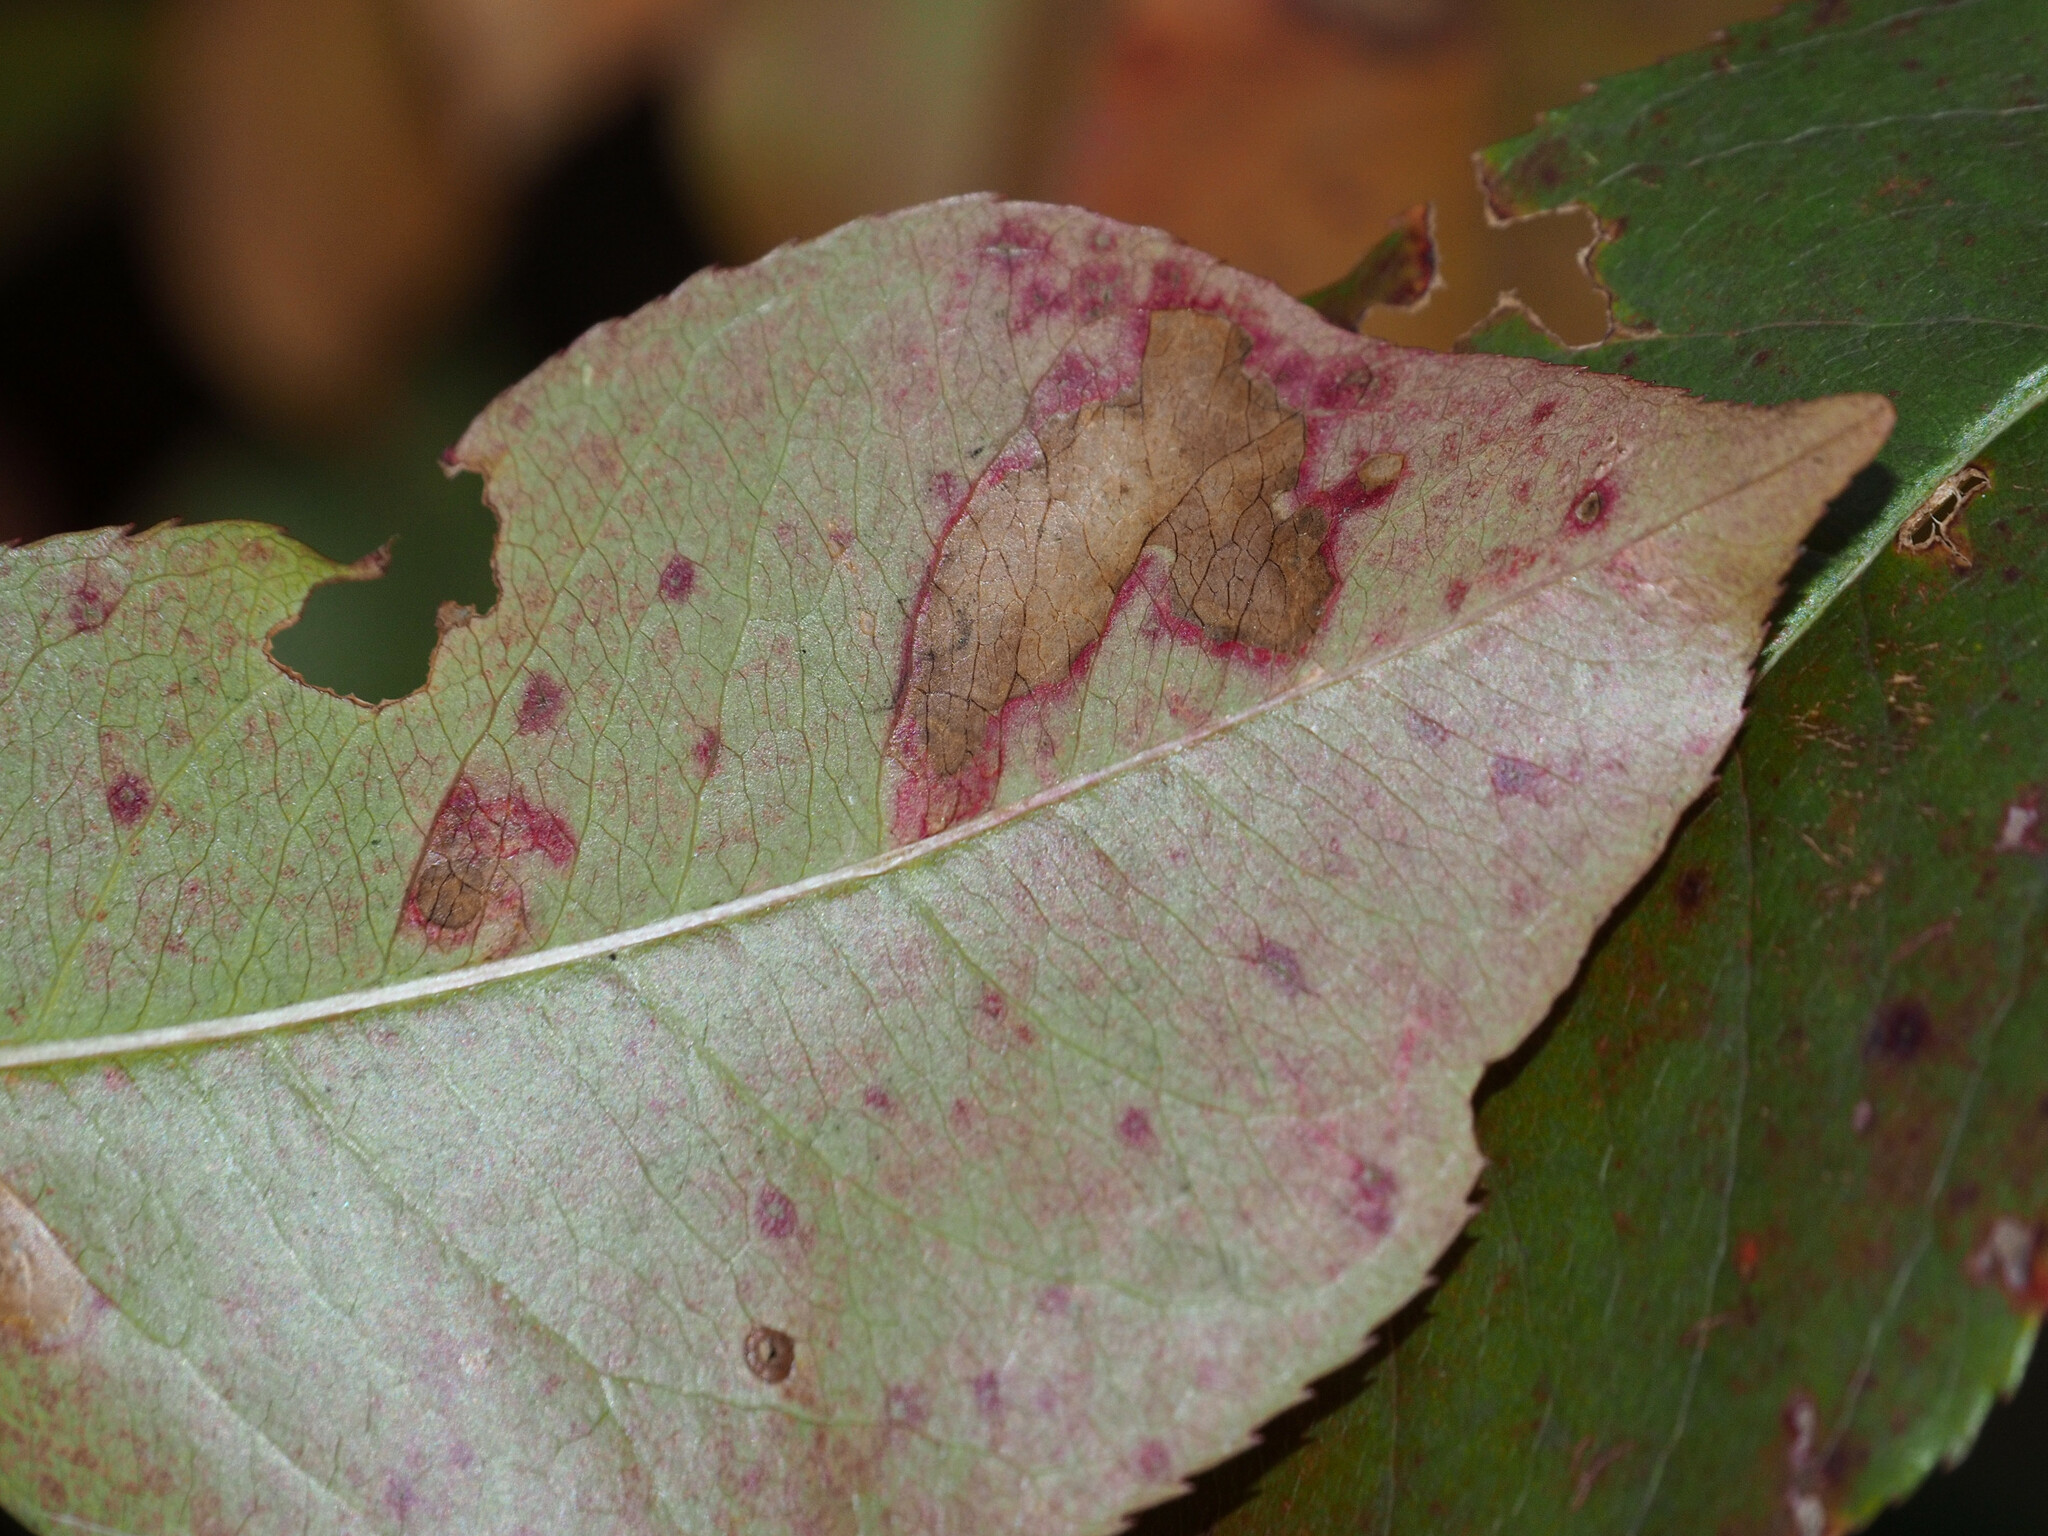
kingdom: Animalia
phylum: Arthropoda
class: Insecta
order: Lepidoptera
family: Nepticulidae
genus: Stigmella
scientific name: Stigmella prunifoliella
